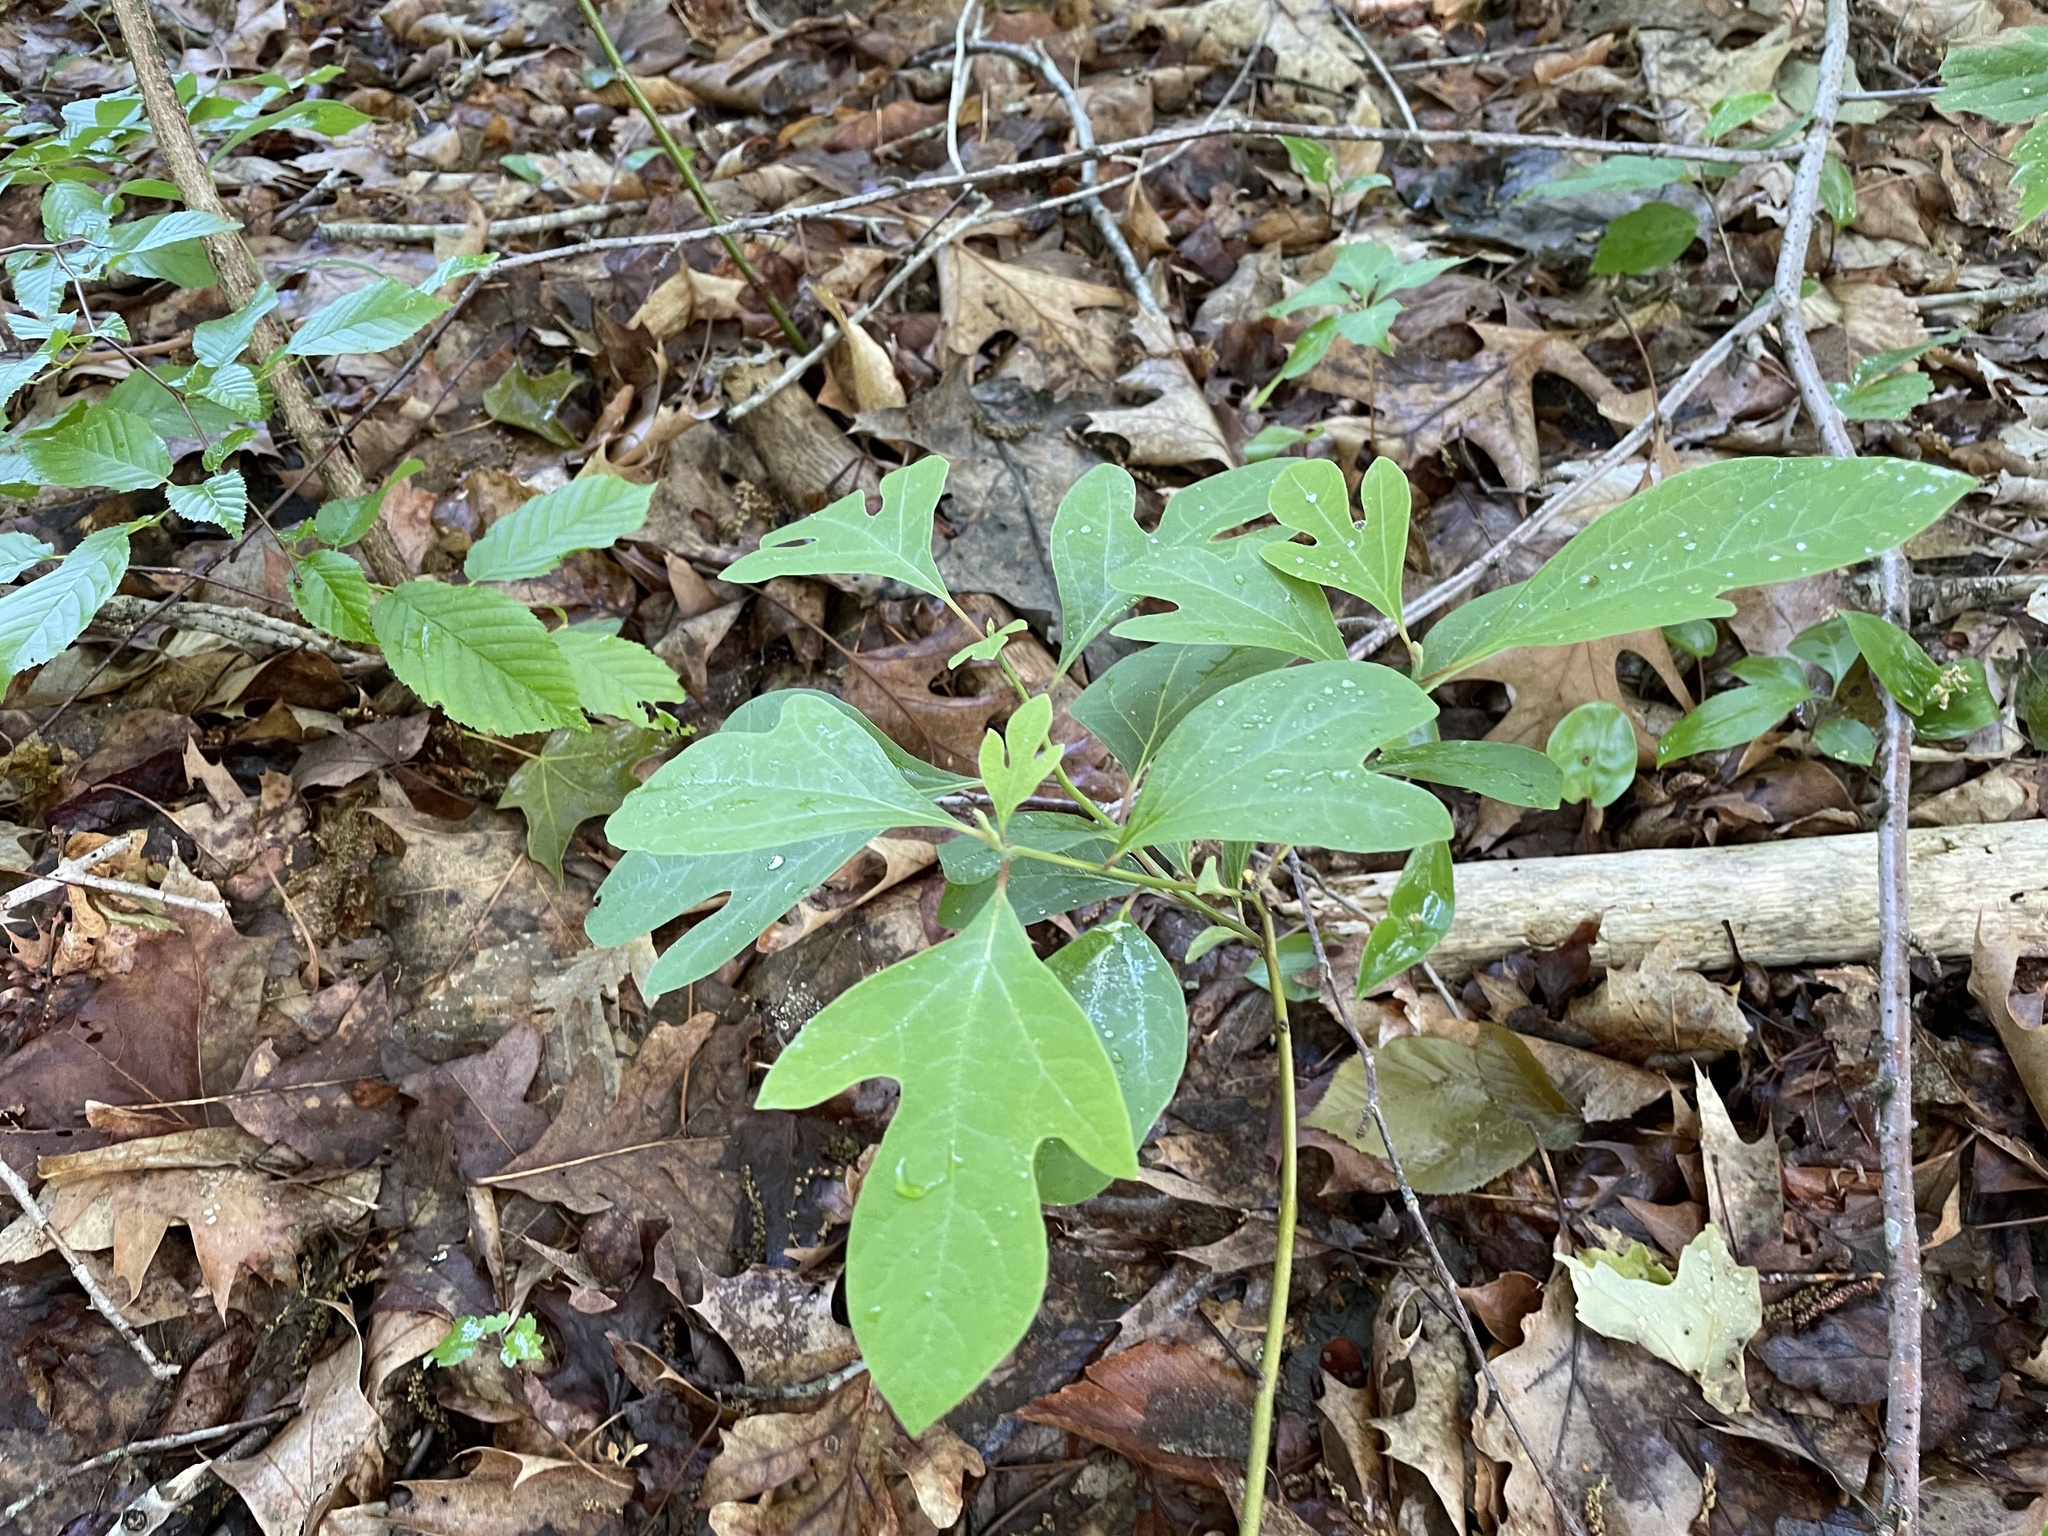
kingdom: Plantae
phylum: Tracheophyta
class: Magnoliopsida
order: Laurales
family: Lauraceae
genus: Sassafras
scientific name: Sassafras albidum
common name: Sassafras
